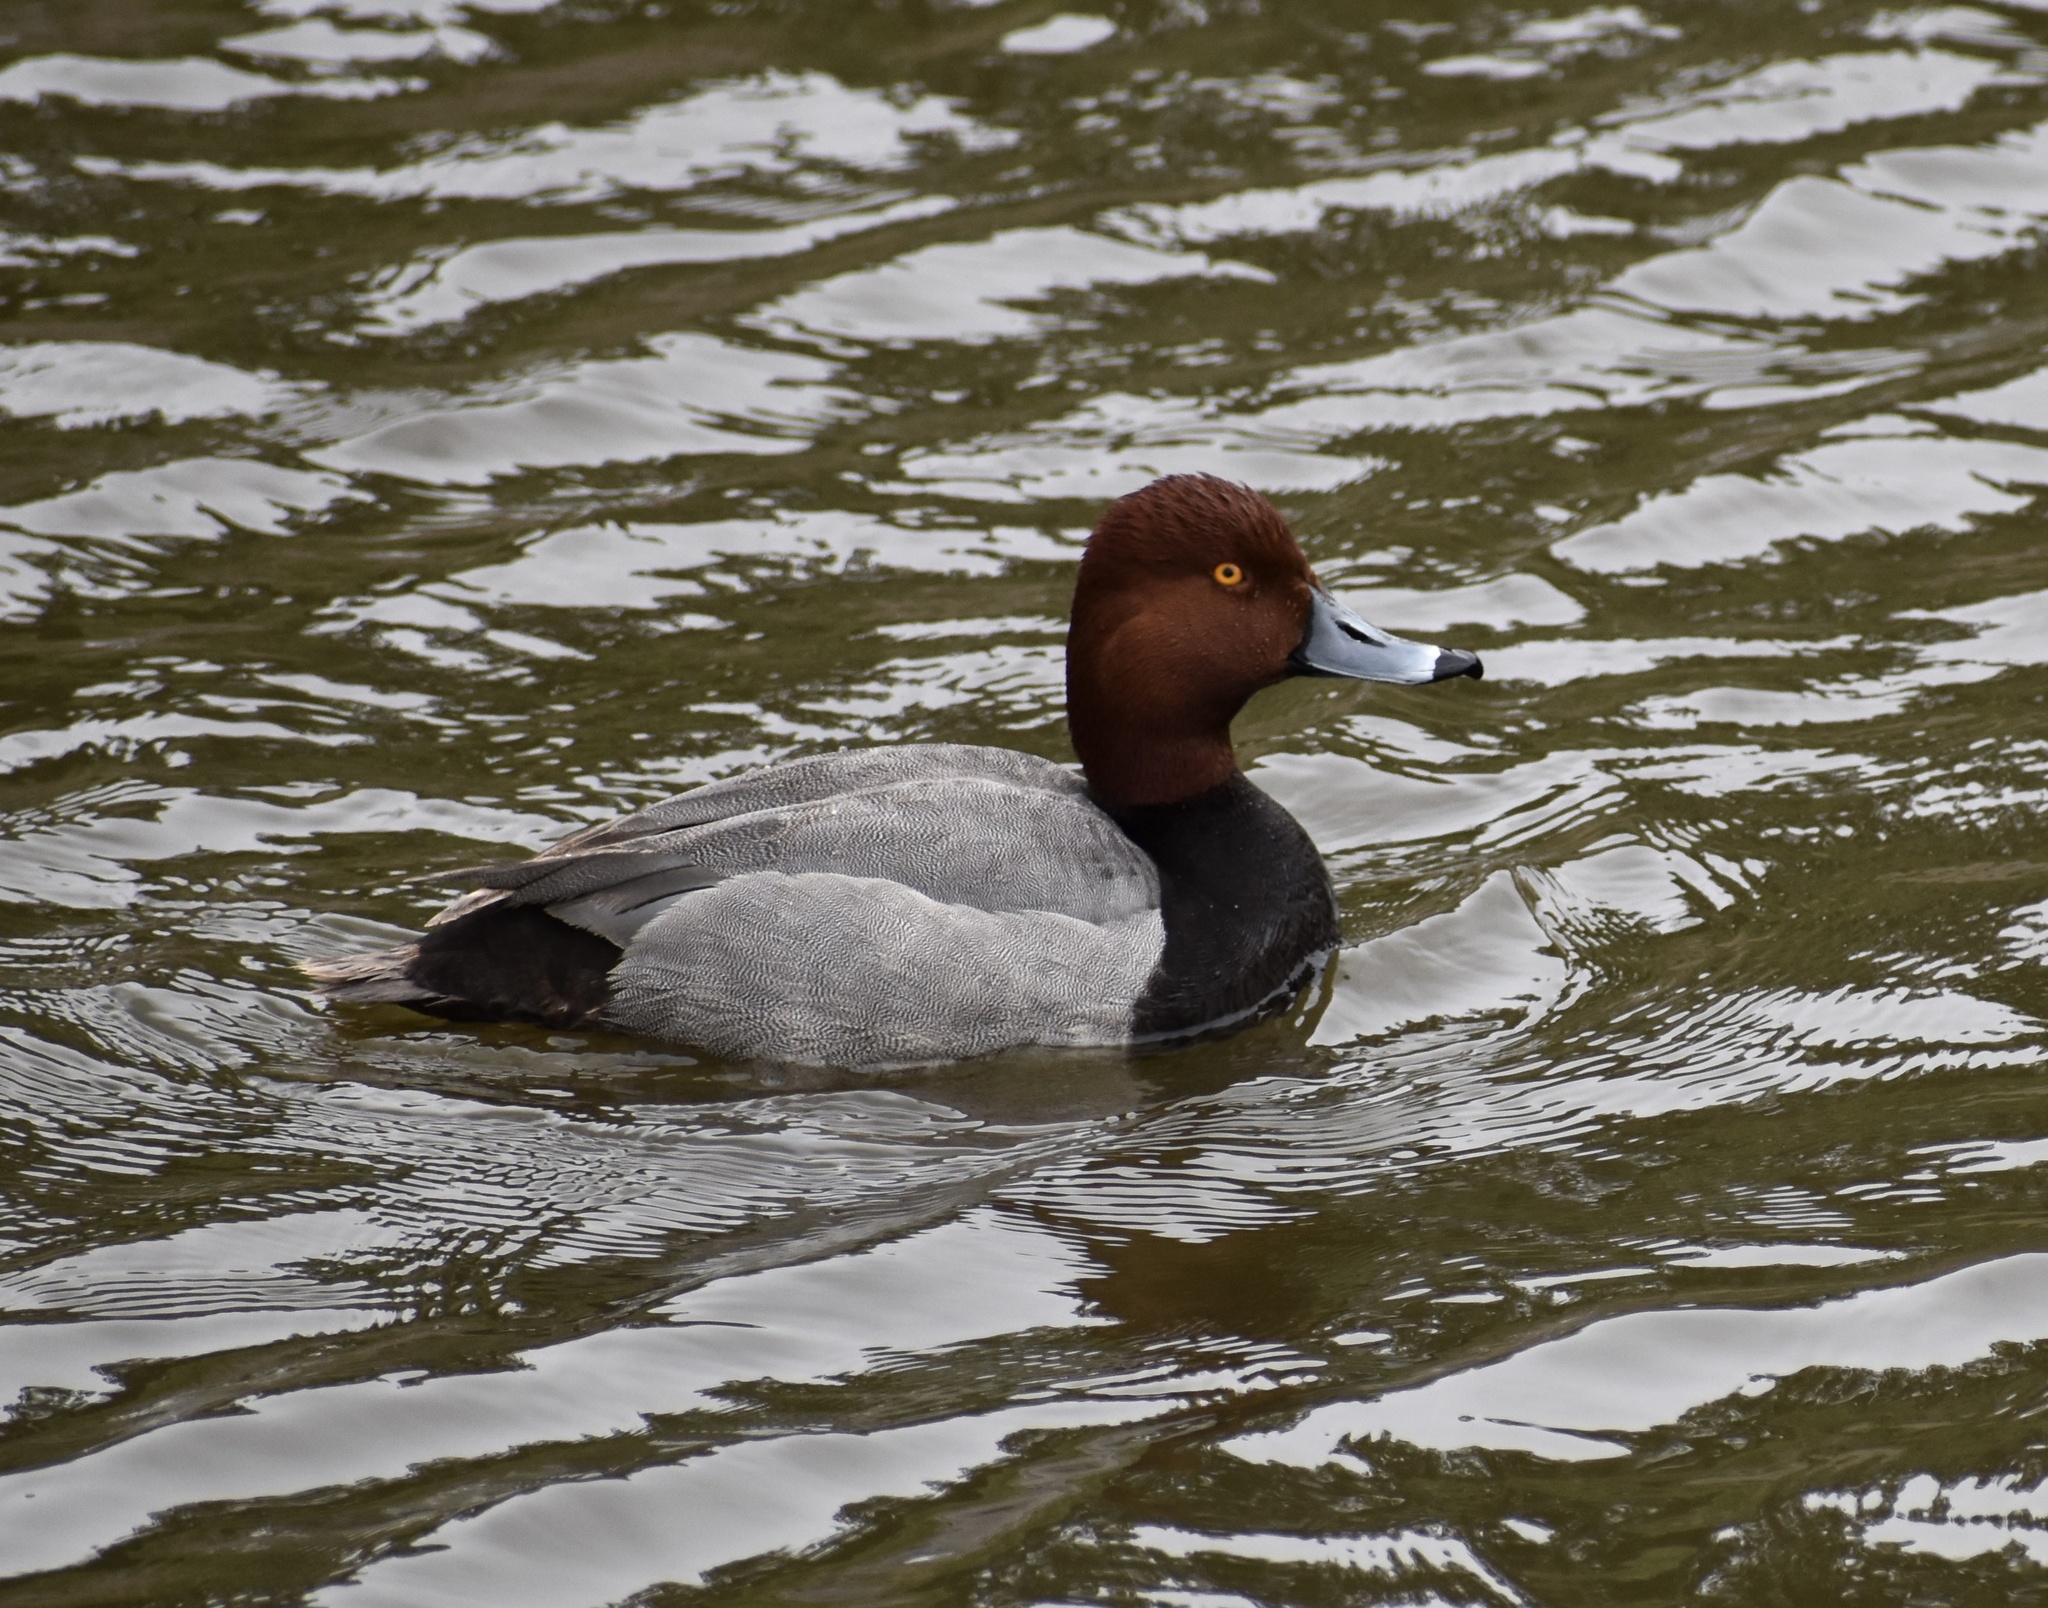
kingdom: Animalia
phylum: Chordata
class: Aves
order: Anseriformes
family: Anatidae
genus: Aythya
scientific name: Aythya americana
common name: Redhead
